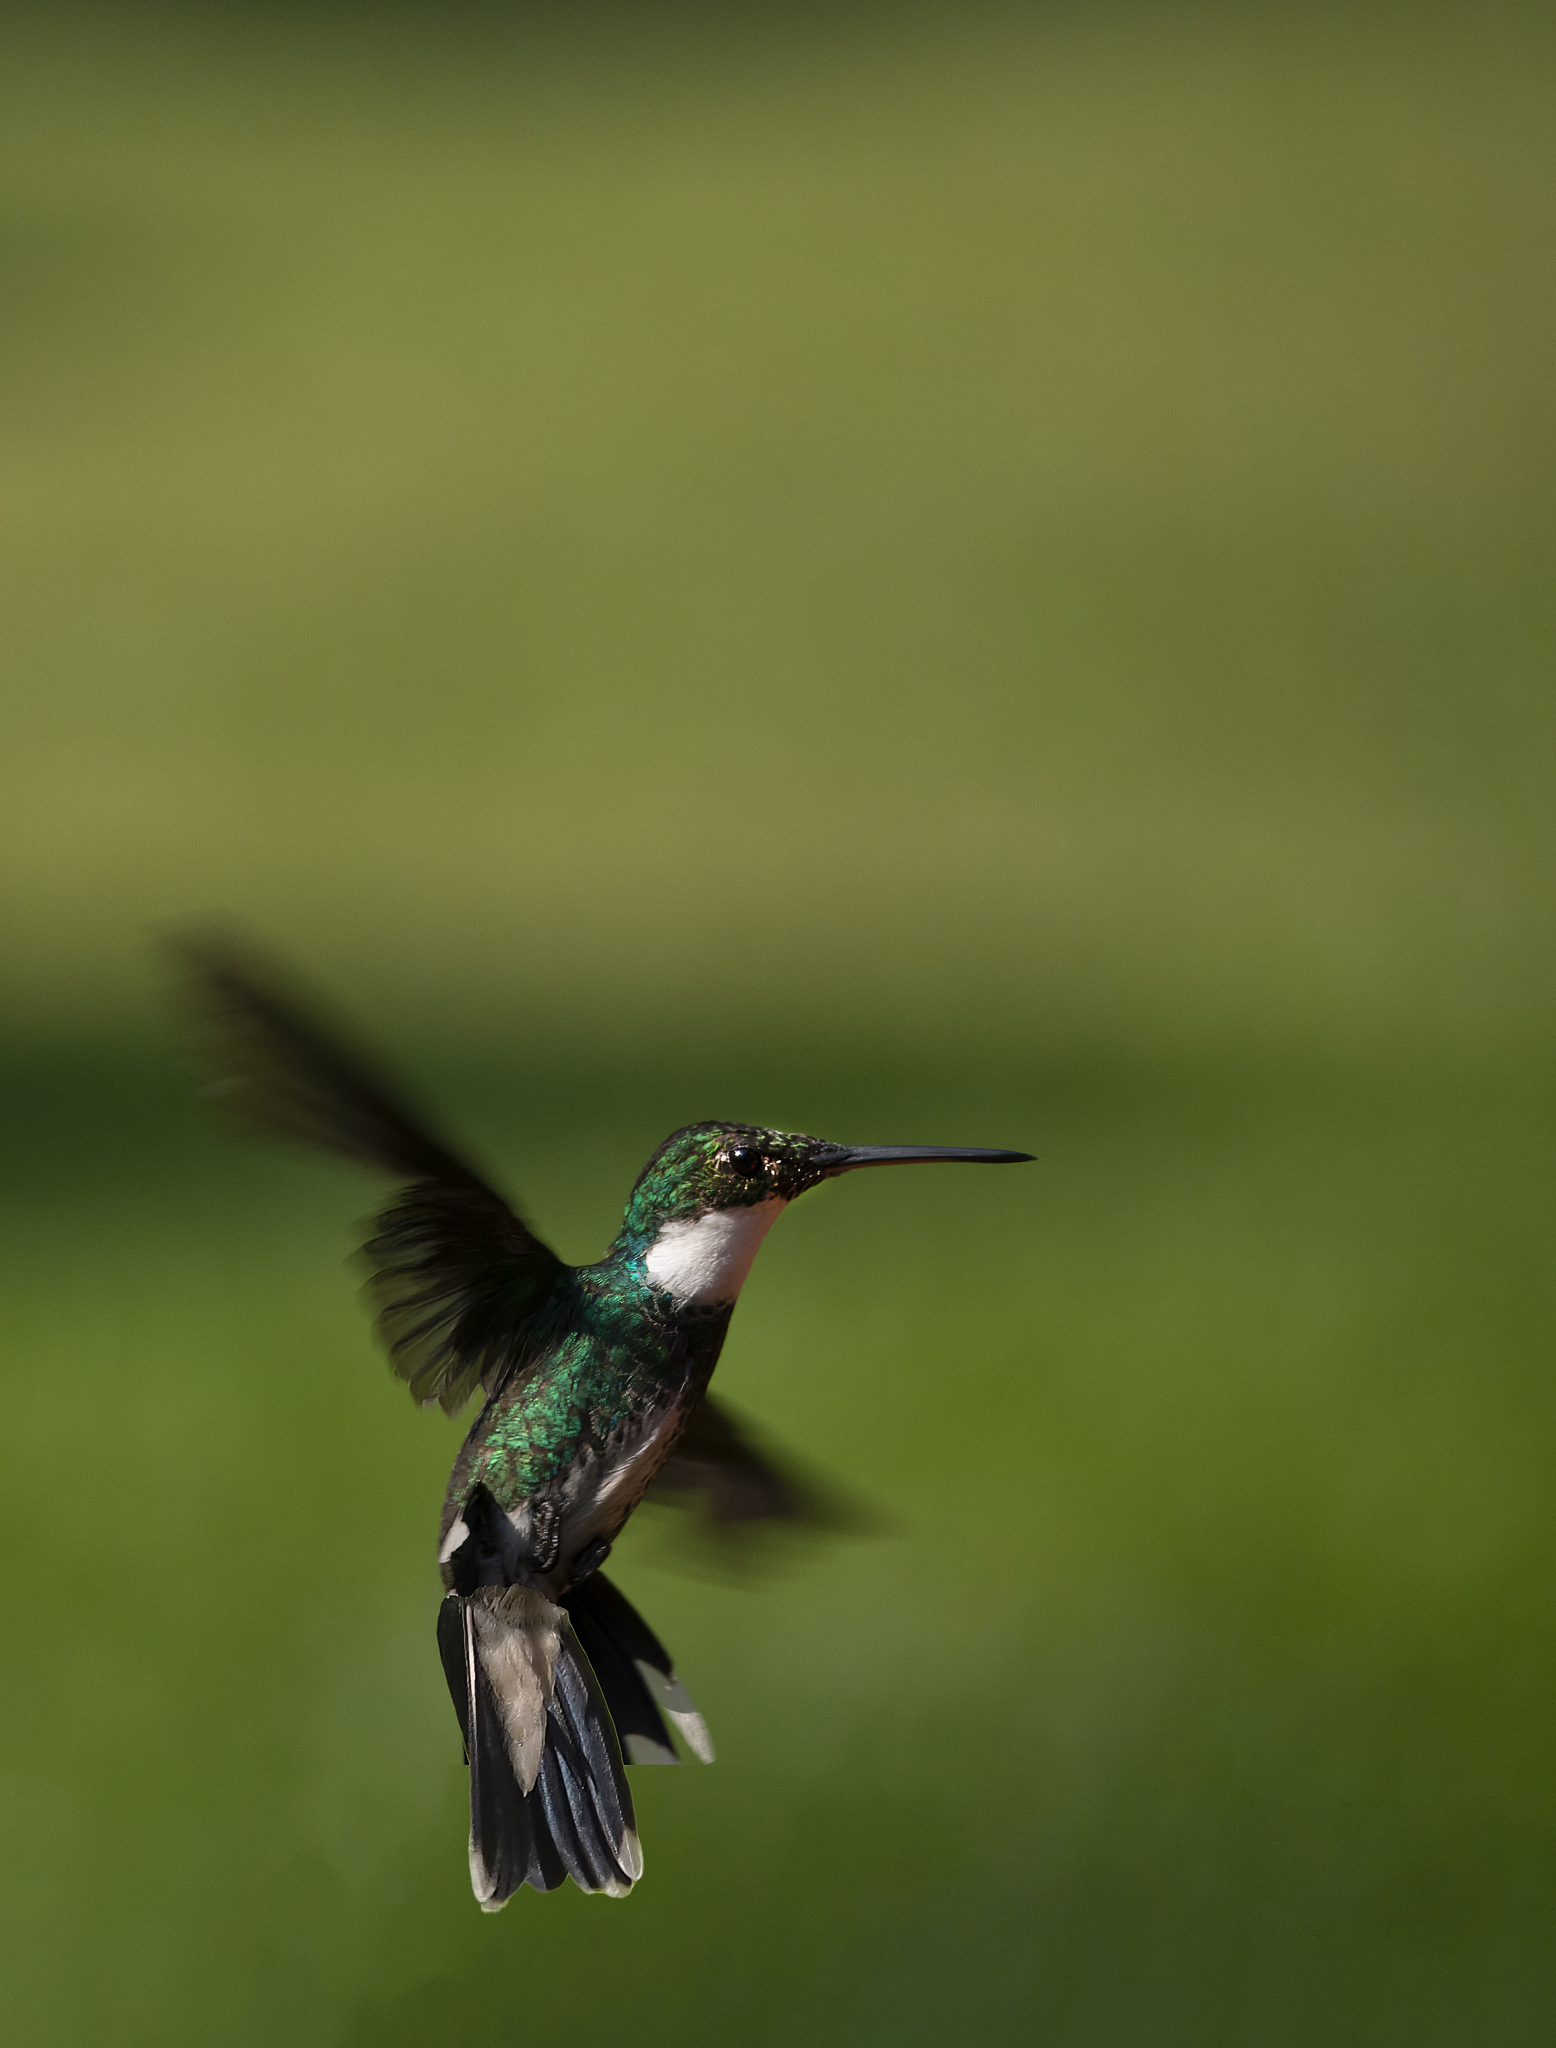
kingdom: Animalia
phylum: Chordata
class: Aves
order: Apodiformes
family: Trochilidae
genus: Leucochloris
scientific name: Leucochloris albicollis
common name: White-throated hummingbird
